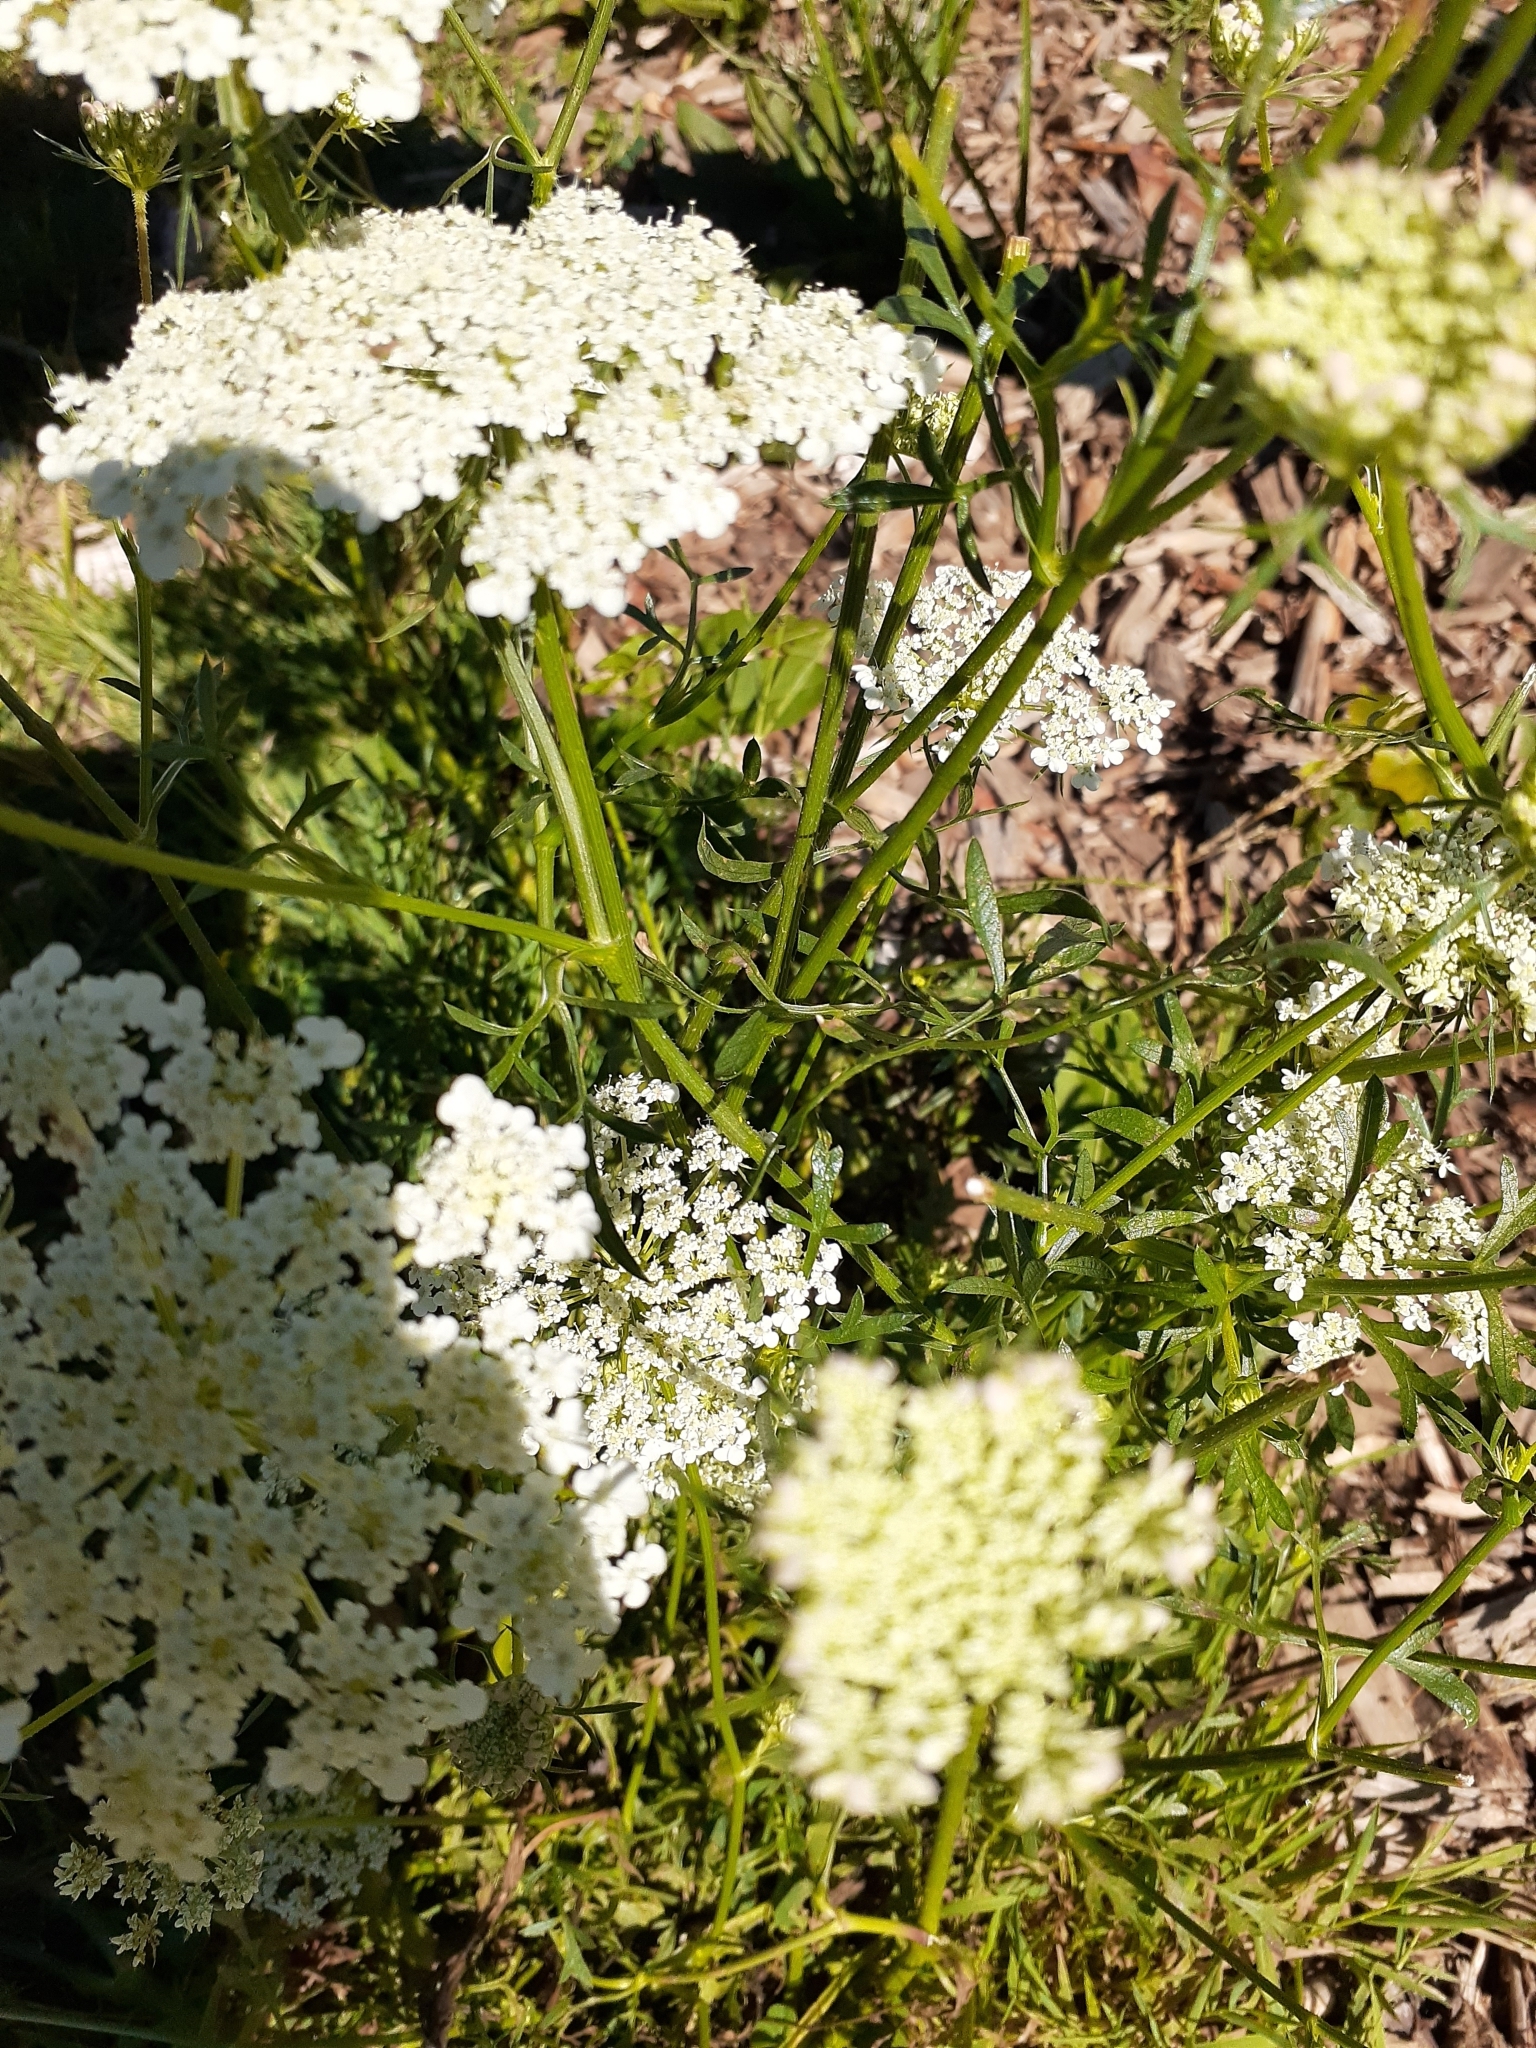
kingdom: Plantae
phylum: Tracheophyta
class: Magnoliopsida
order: Apiales
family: Apiaceae
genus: Daucus
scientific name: Daucus carota
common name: Wild carrot
